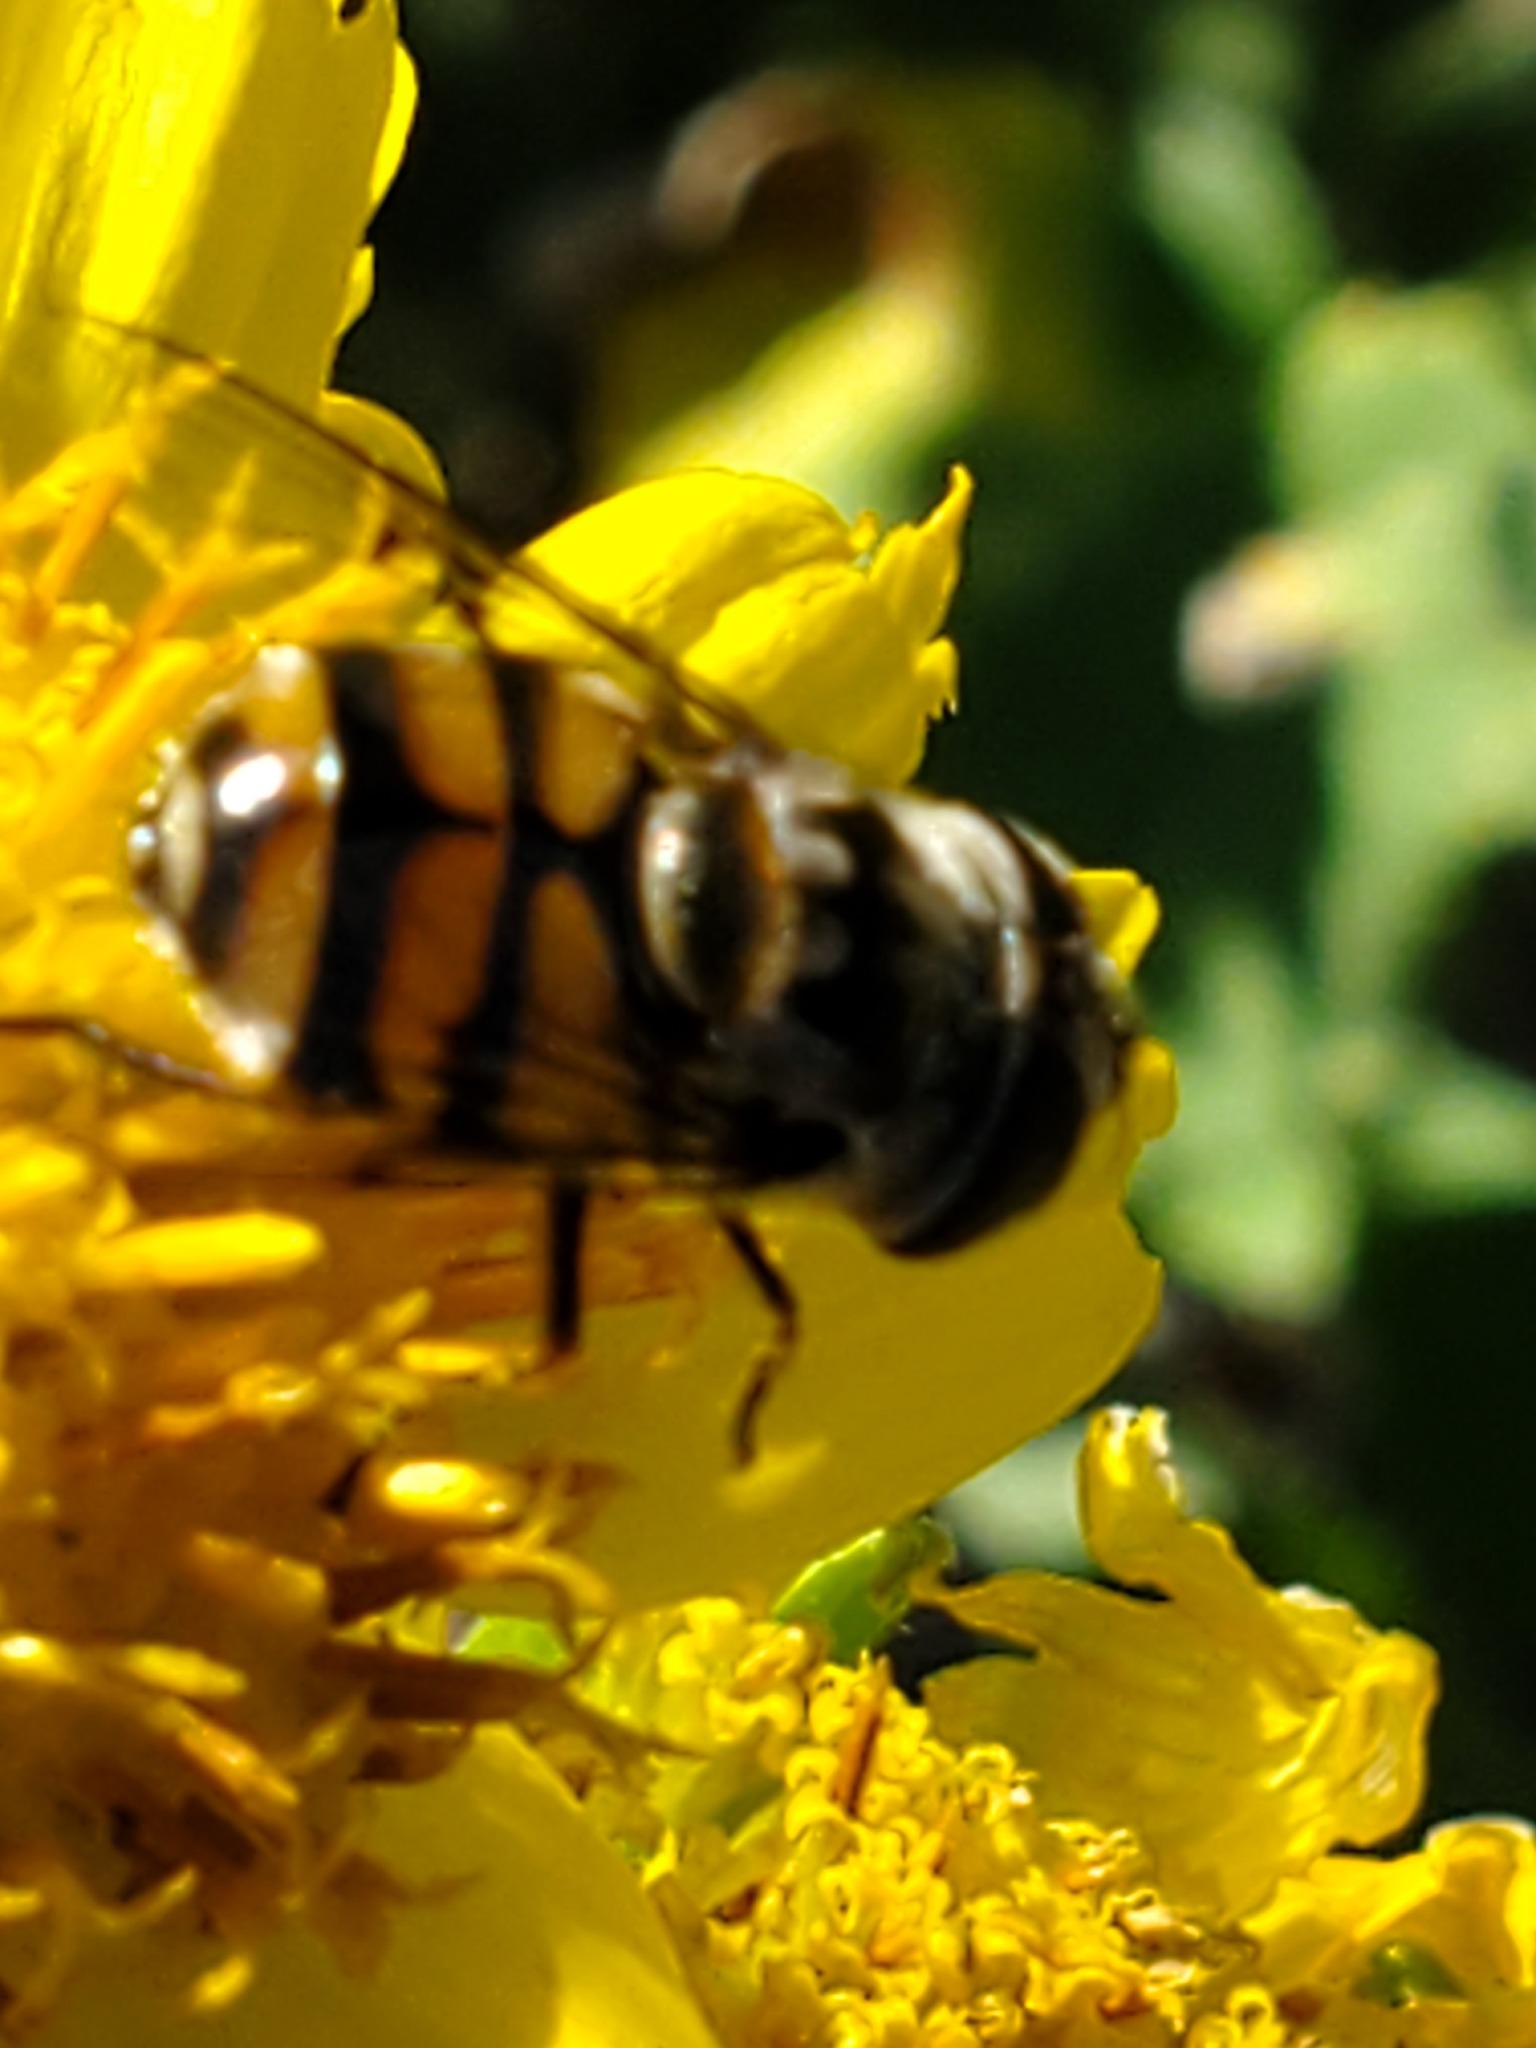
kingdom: Animalia
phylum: Arthropoda
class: Insecta
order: Diptera
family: Syrphidae
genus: Copestylum
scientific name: Copestylum avidum
